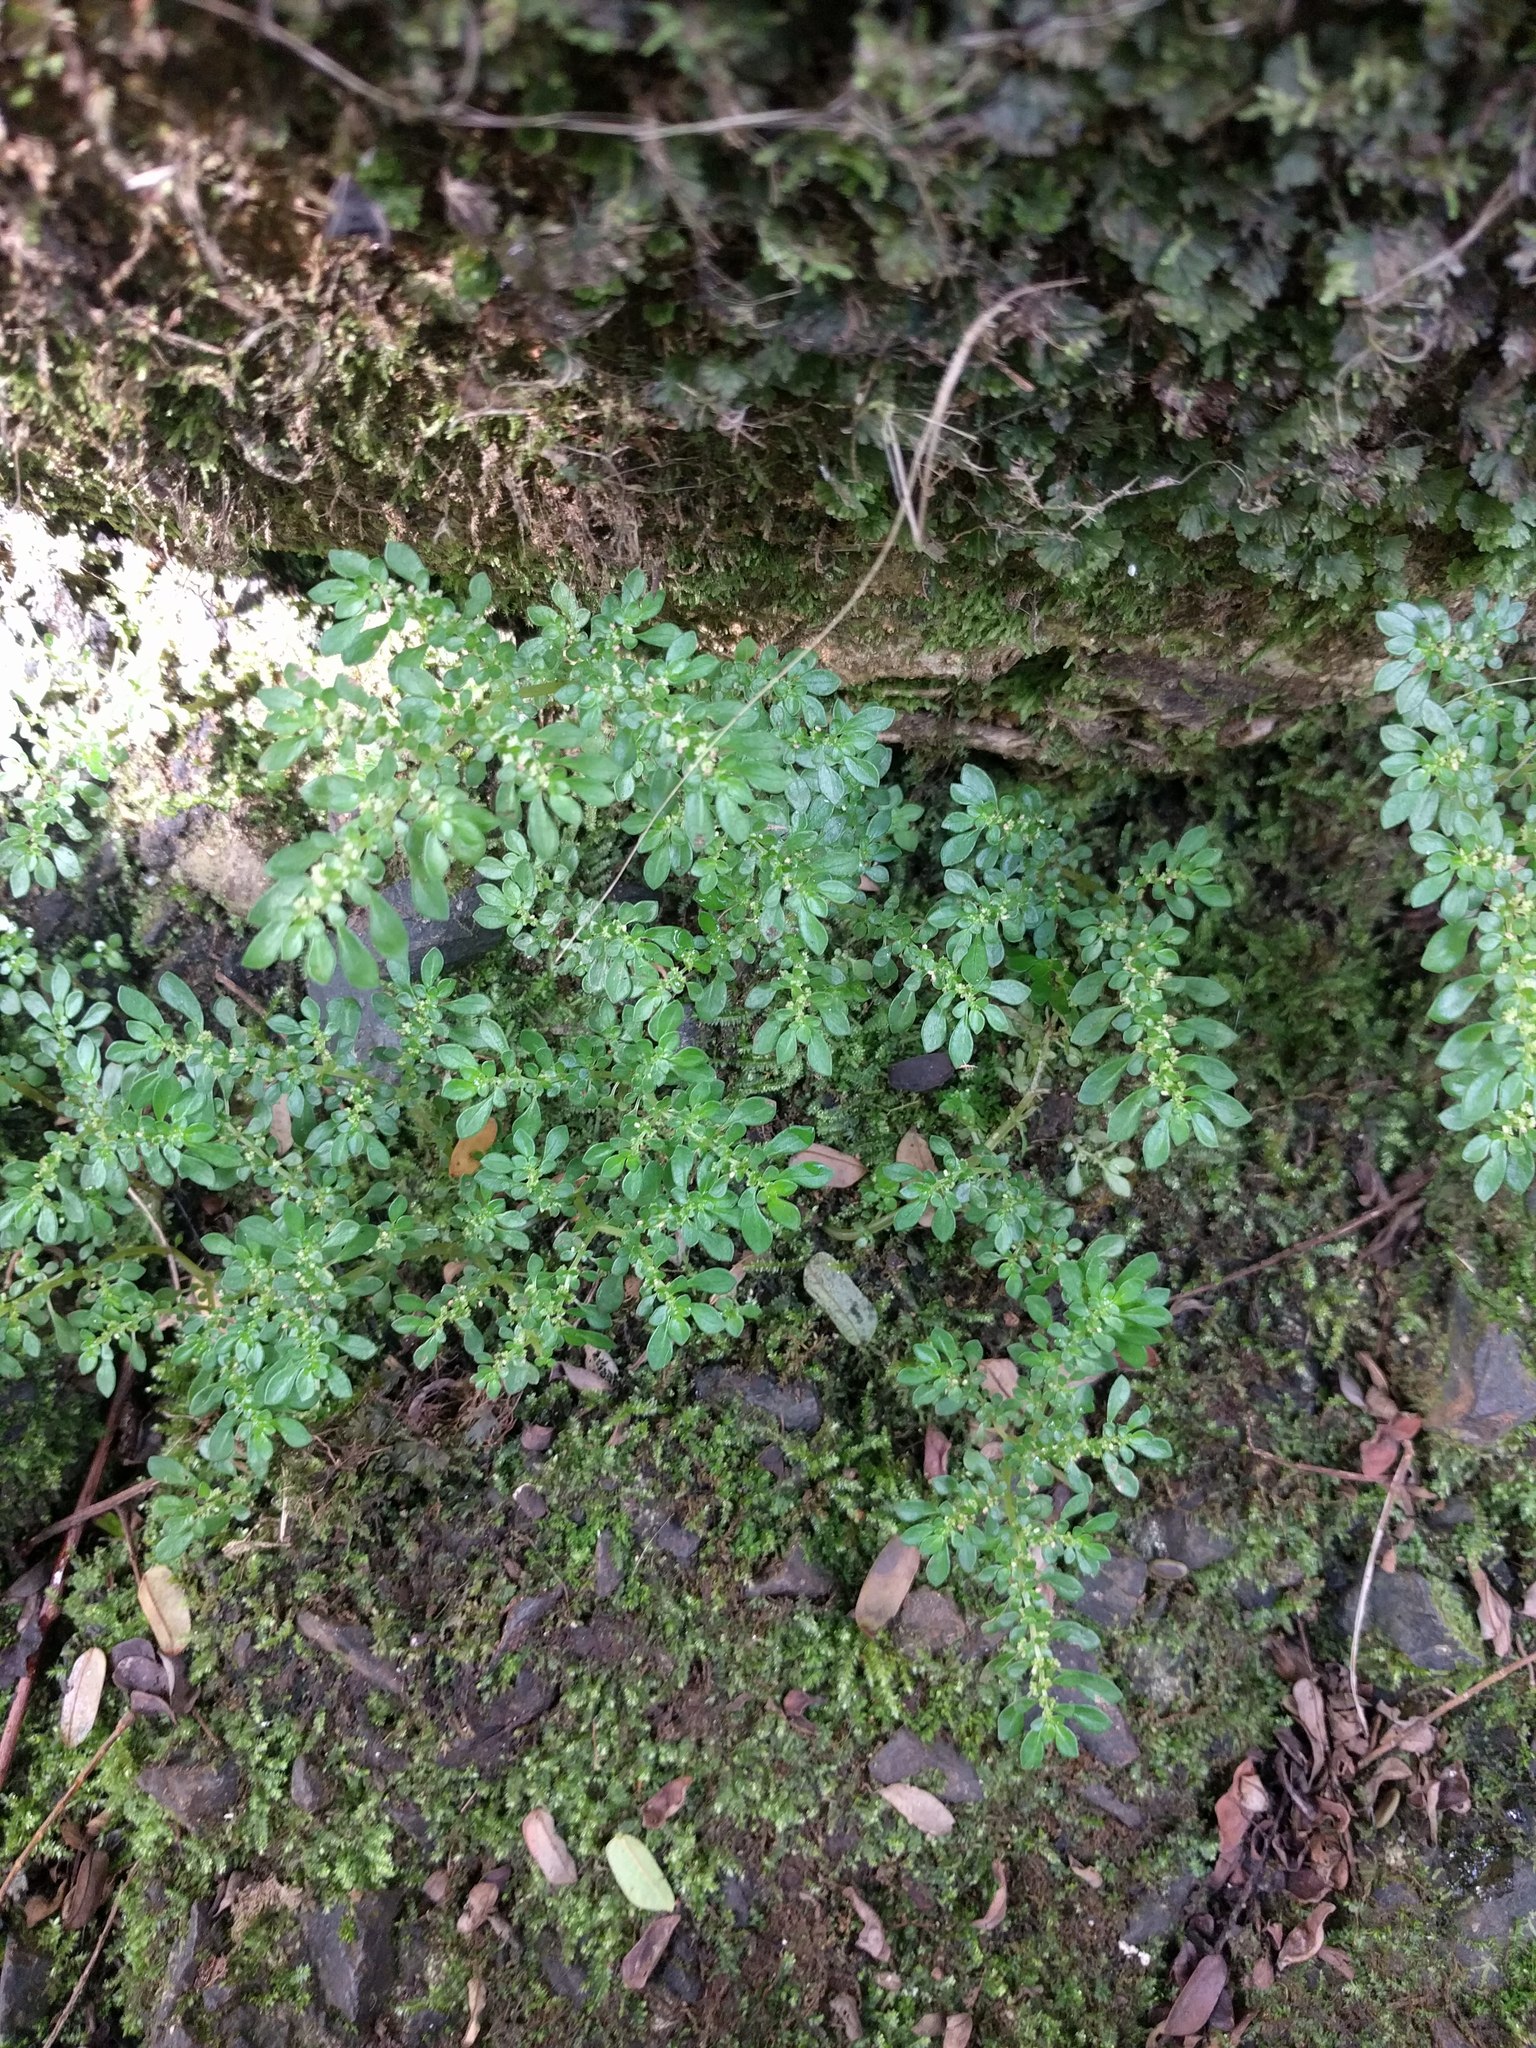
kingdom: Plantae
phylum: Tracheophyta
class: Magnoliopsida
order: Rosales
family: Urticaceae
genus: Pilea
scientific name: Pilea microphylla
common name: Artillery-plant
